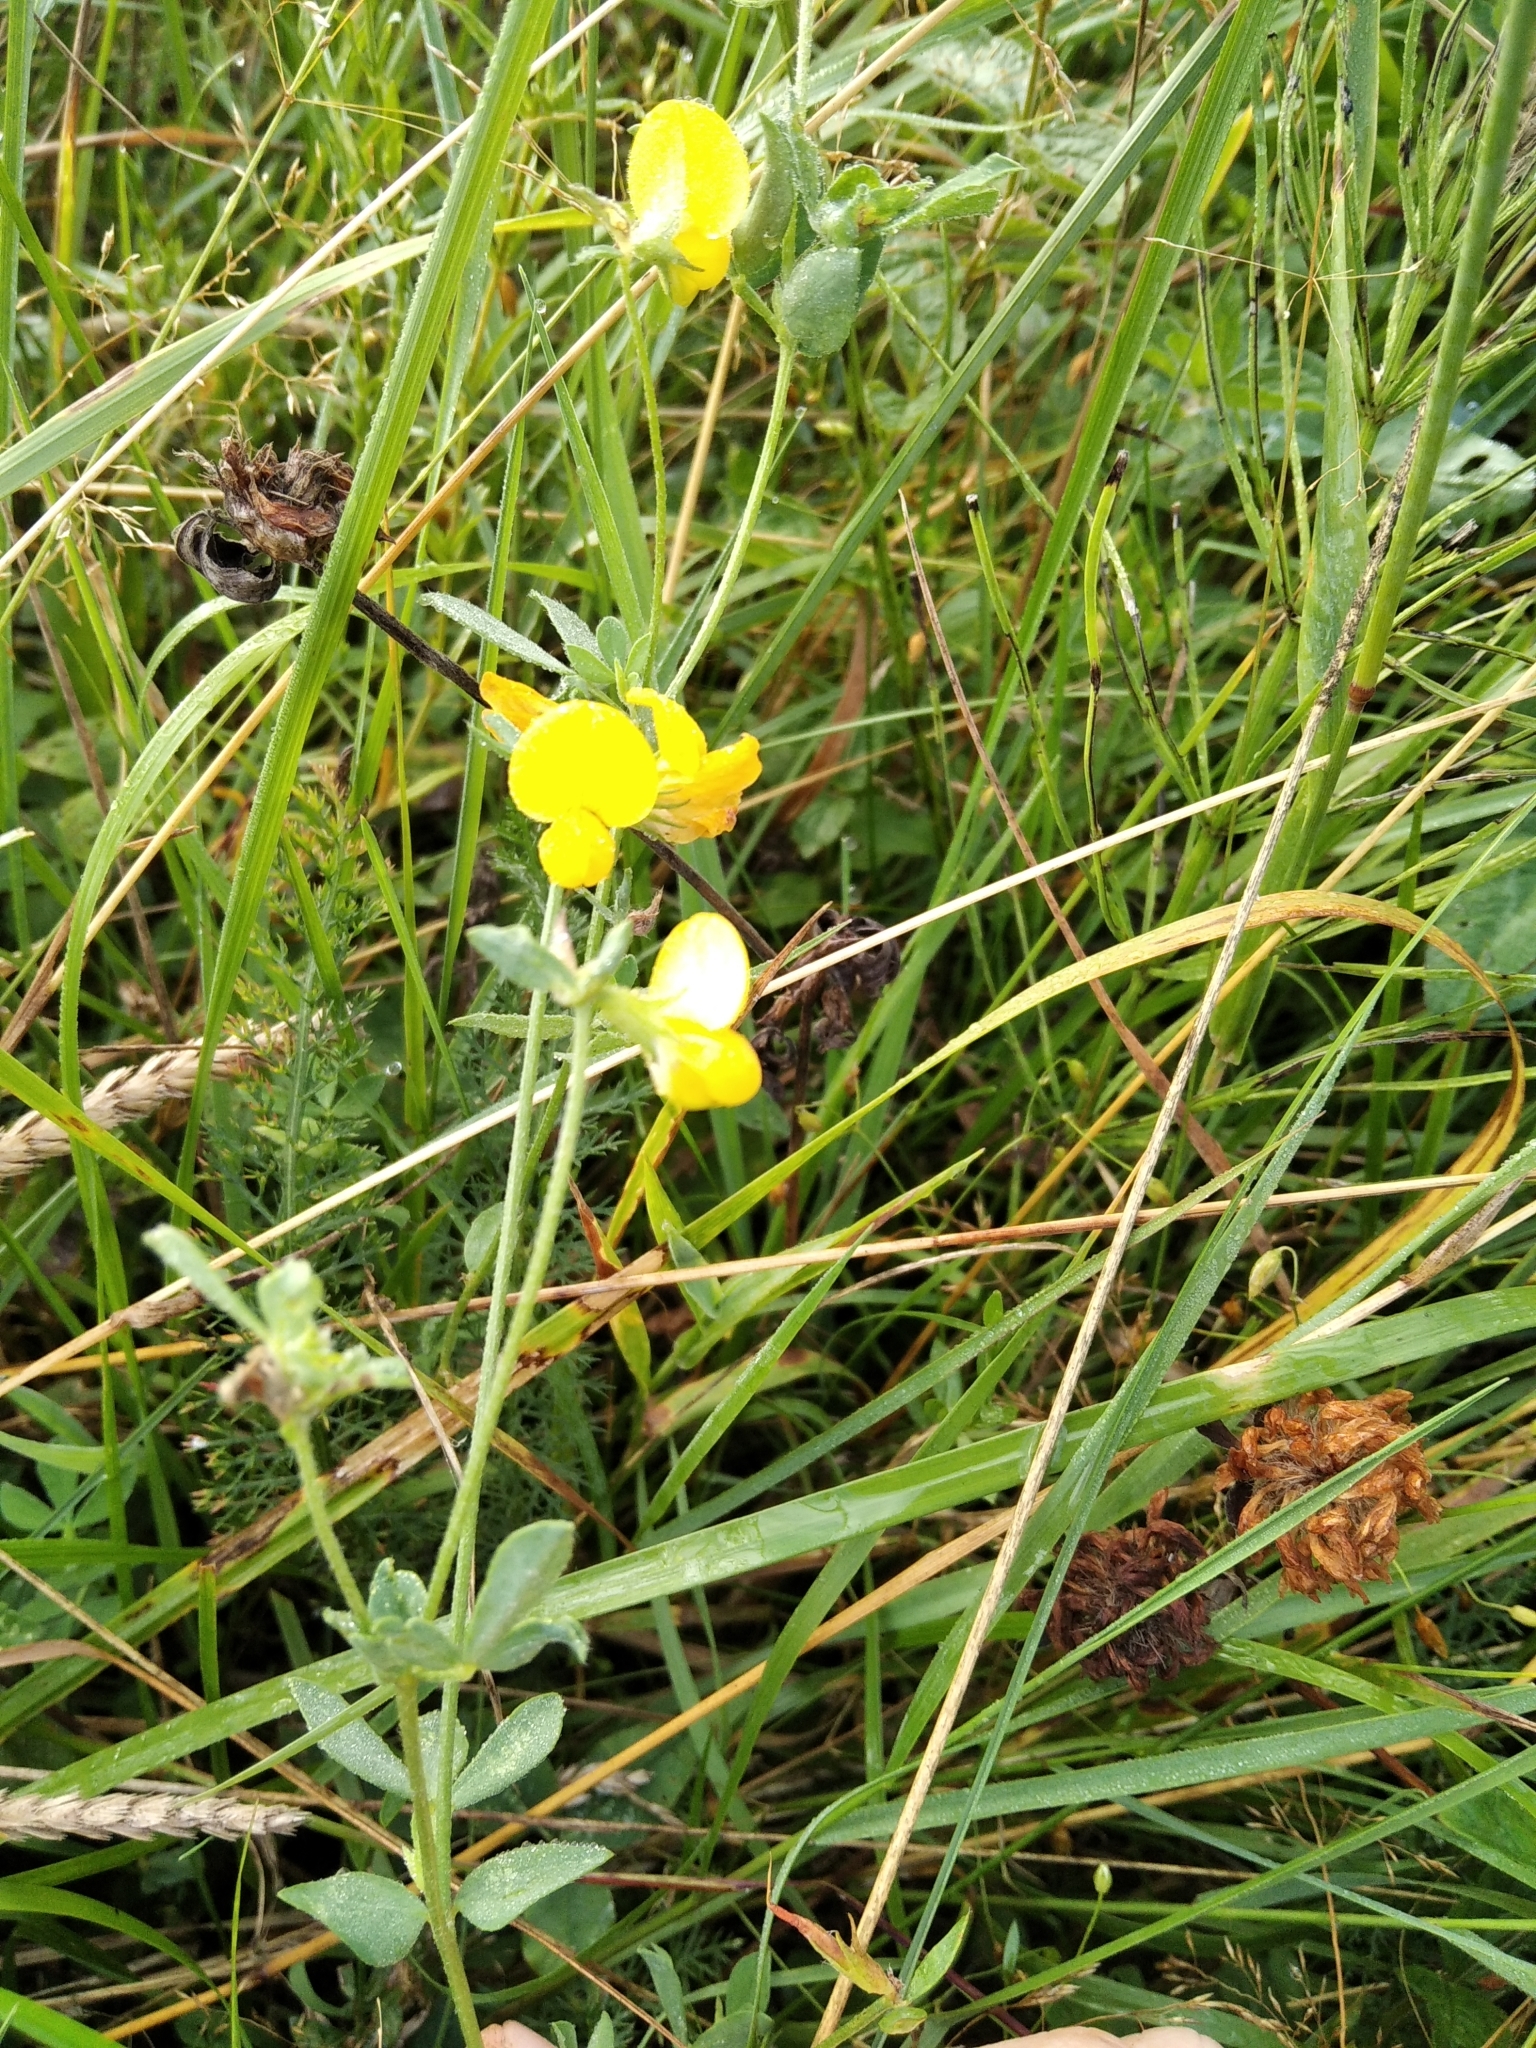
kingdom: Plantae
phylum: Tracheophyta
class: Magnoliopsida
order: Fabales
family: Fabaceae
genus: Lotus
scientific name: Lotus corniculatus
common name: Common bird's-foot-trefoil
